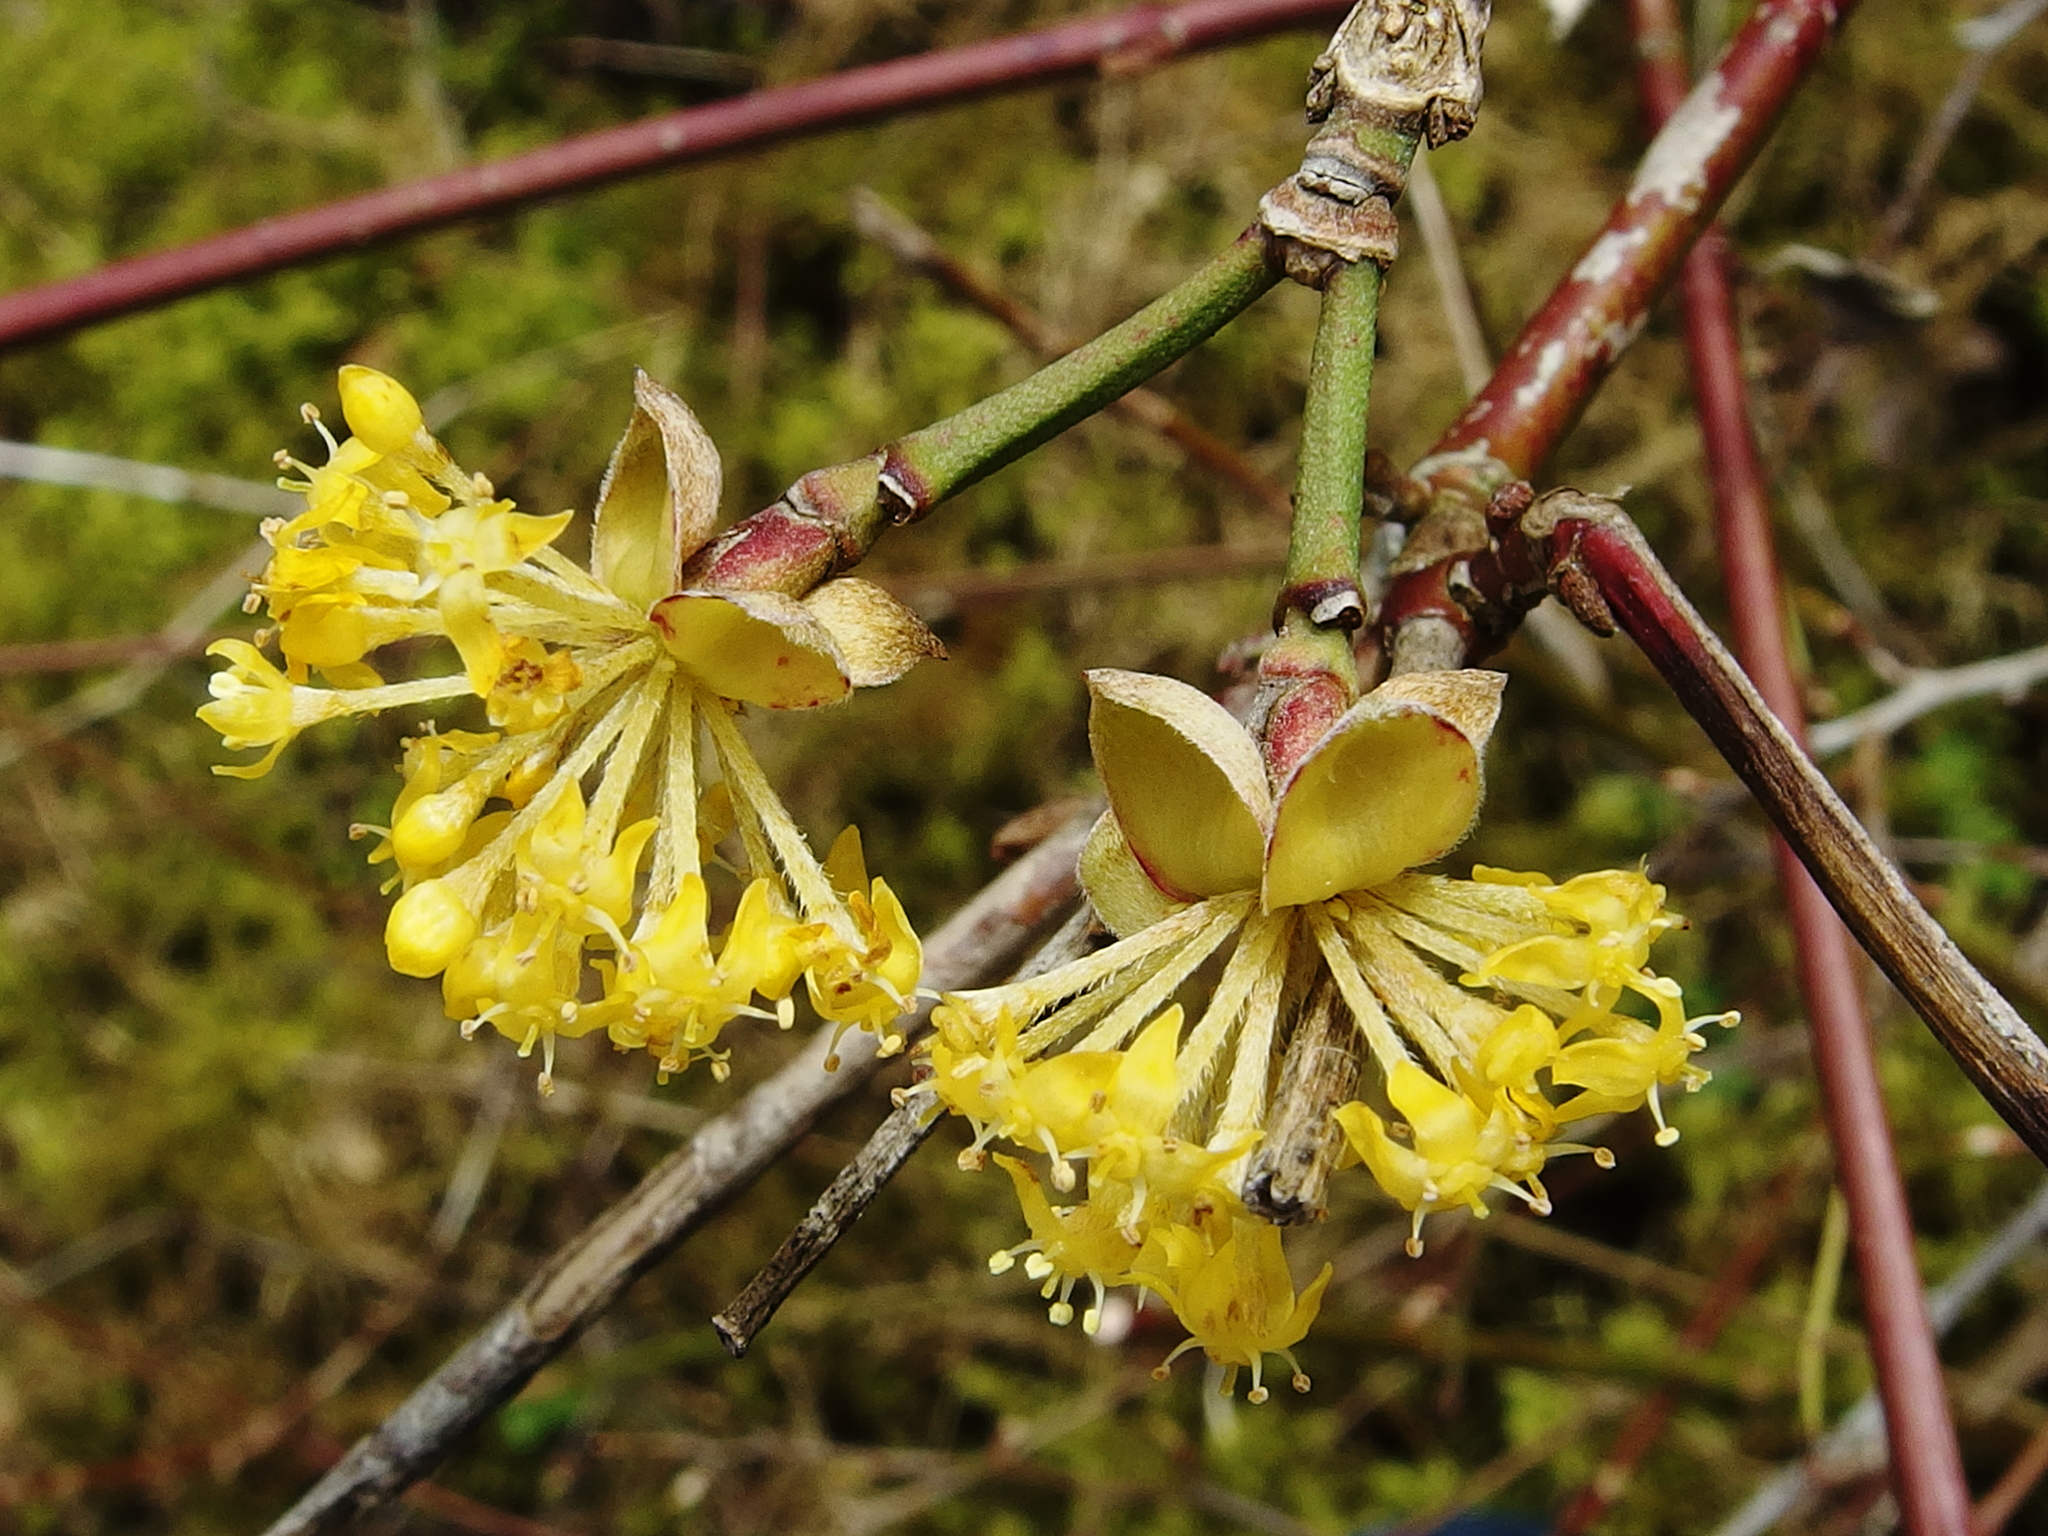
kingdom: Plantae
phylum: Tracheophyta
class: Magnoliopsida
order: Cornales
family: Cornaceae
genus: Cornus
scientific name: Cornus mas
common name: Cornelian-cherry
